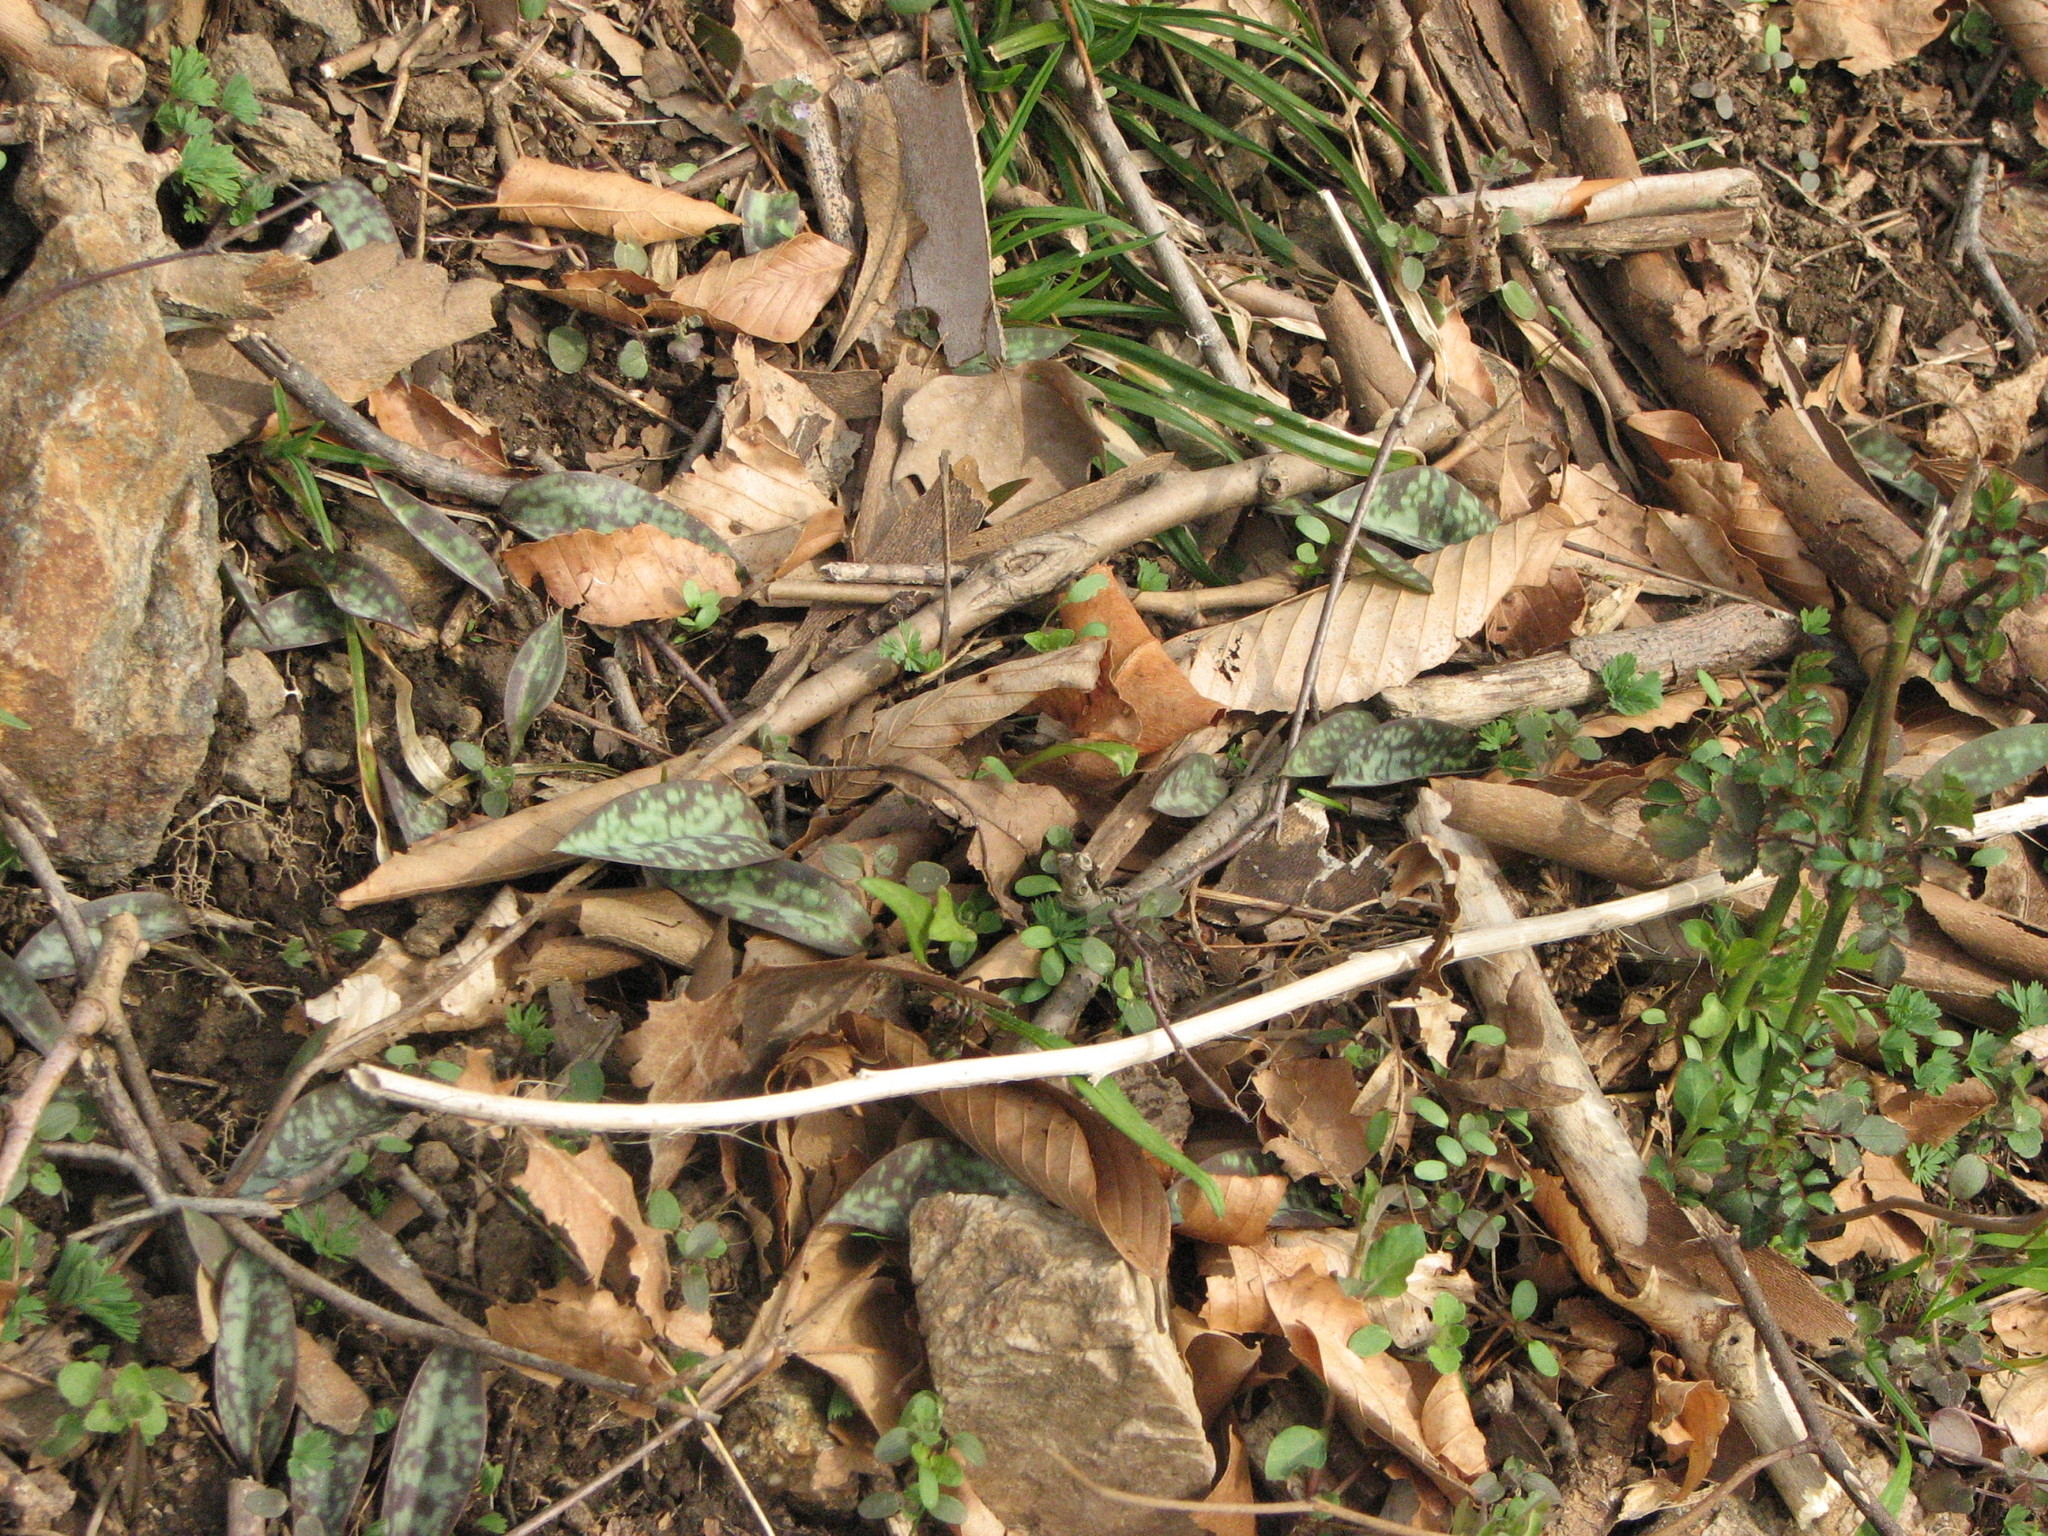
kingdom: Plantae
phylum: Tracheophyta
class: Liliopsida
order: Liliales
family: Liliaceae
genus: Erythronium
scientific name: Erythronium americanum
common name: Yellow adder's-tongue
